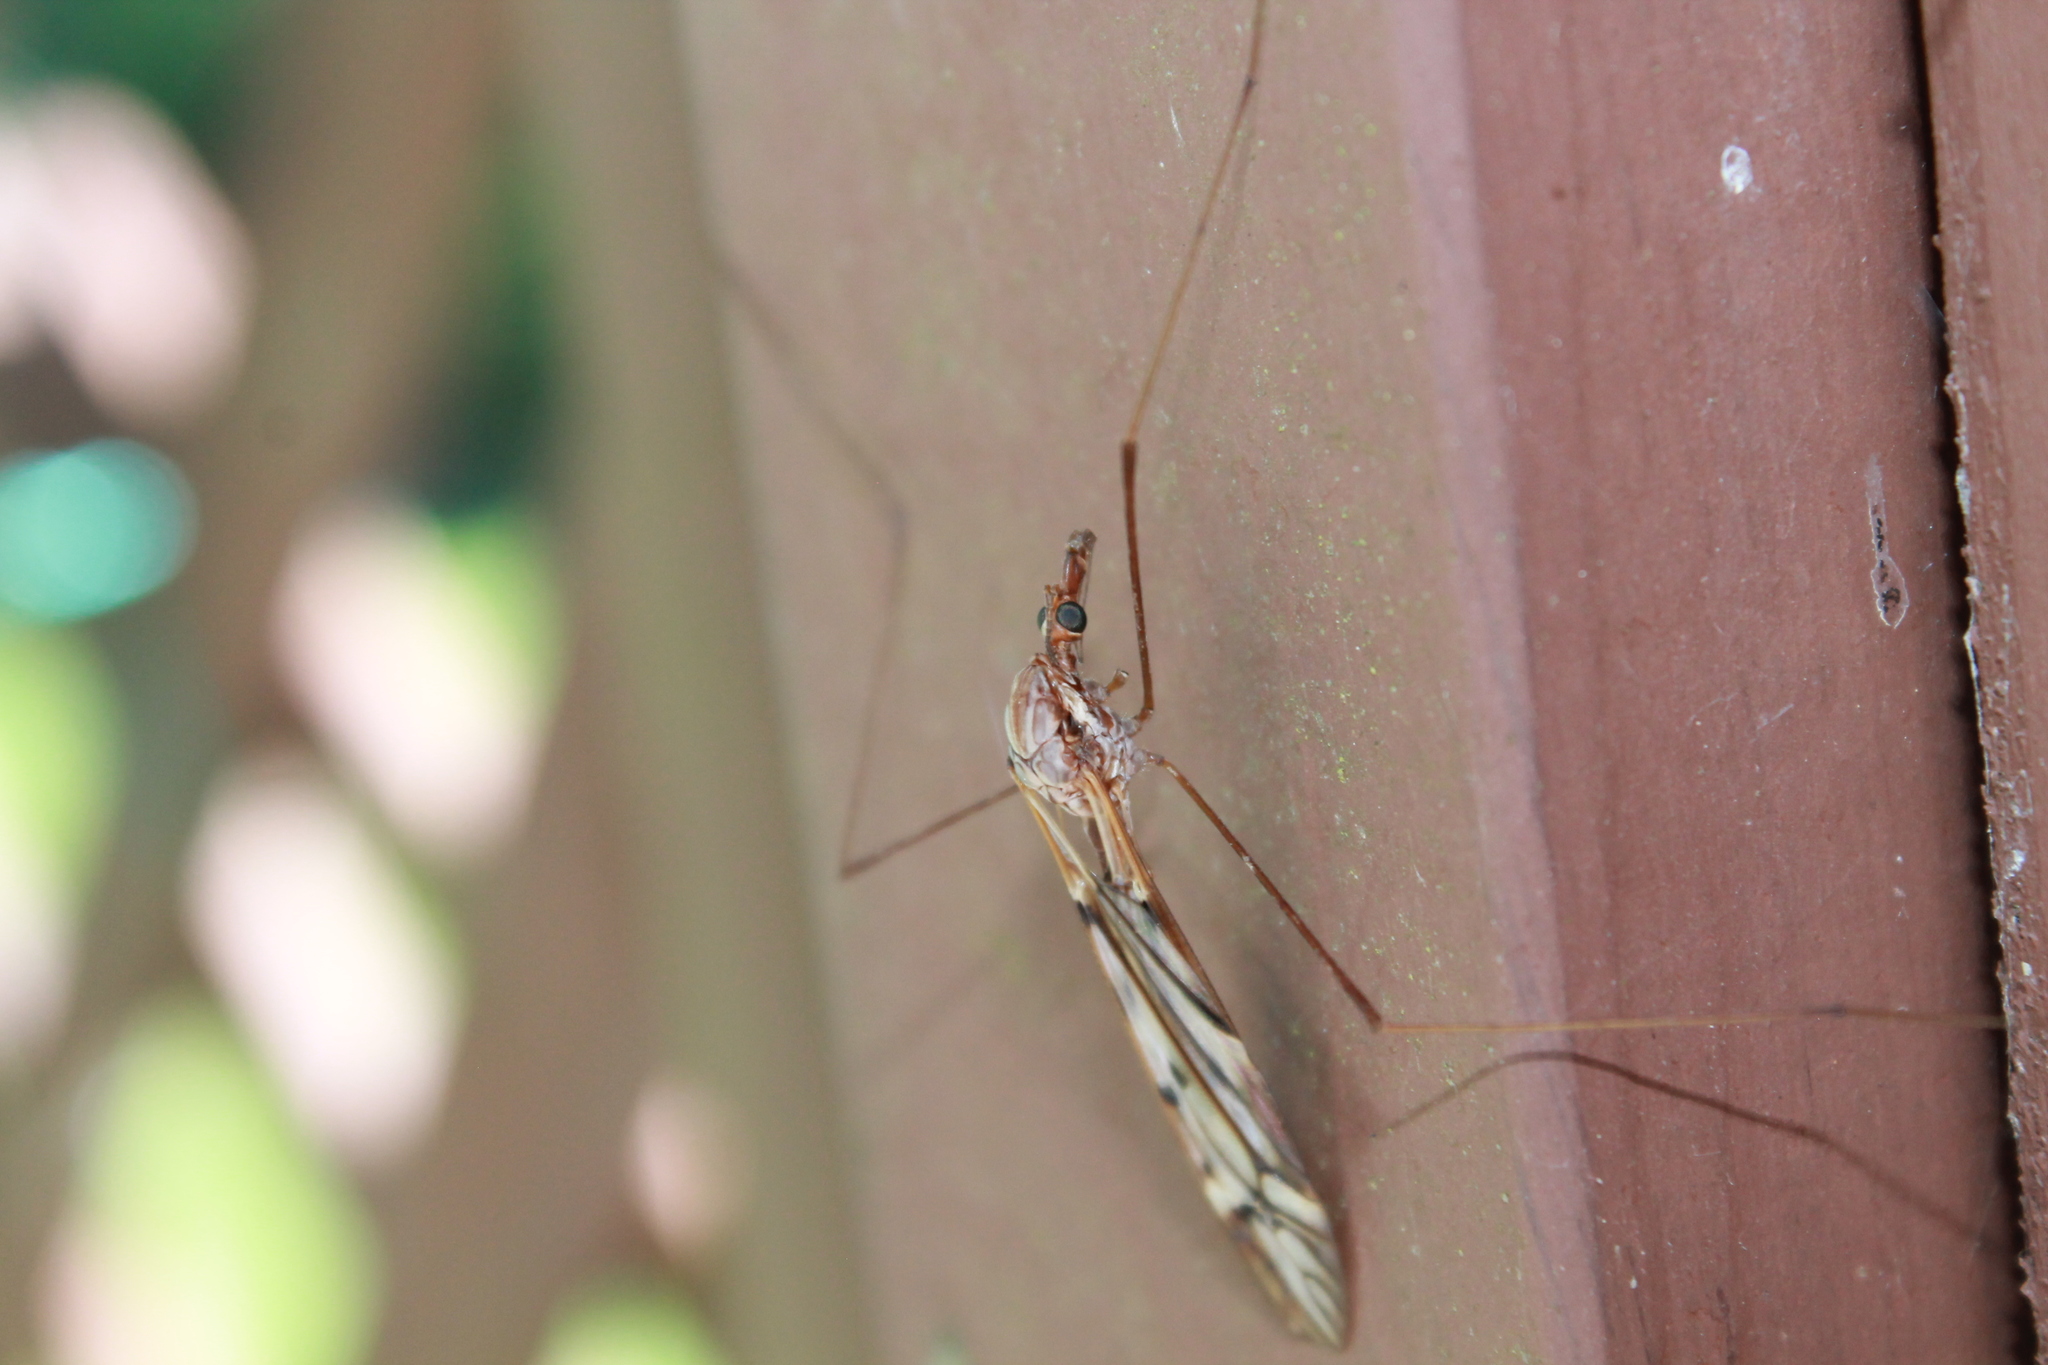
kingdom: Animalia
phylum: Arthropoda
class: Insecta
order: Diptera
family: Tipulidae
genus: Zelandotipula
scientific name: Zelandotipula novarae
